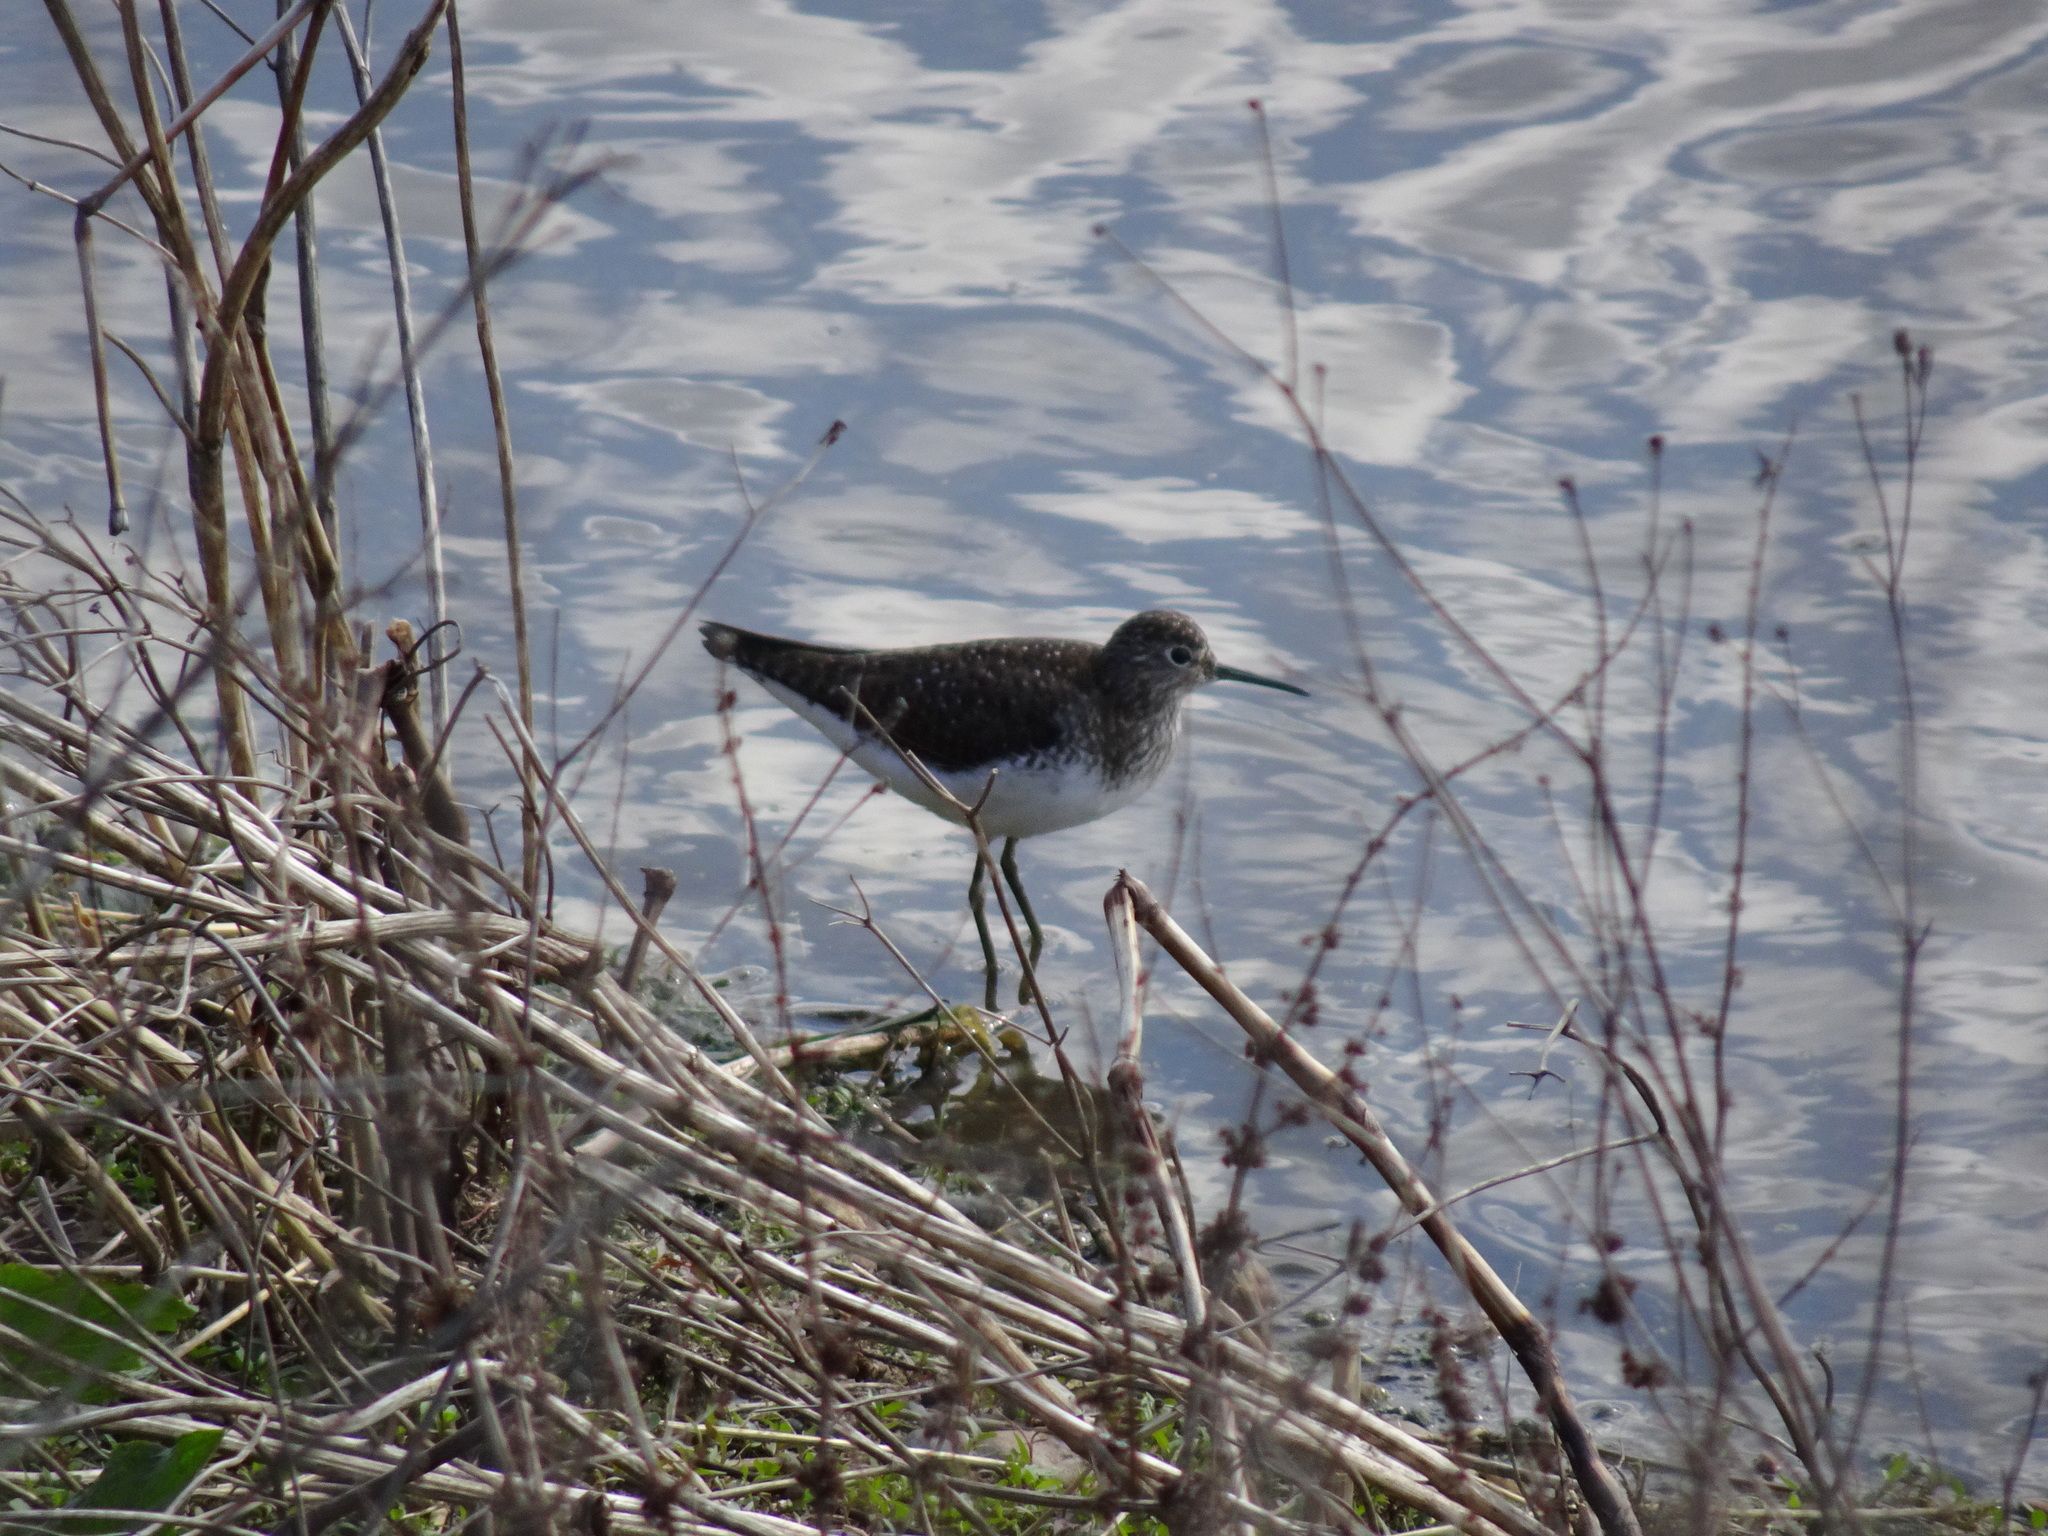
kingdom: Animalia
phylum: Chordata
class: Aves
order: Charadriiformes
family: Scolopacidae
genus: Tringa
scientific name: Tringa solitaria
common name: Solitary sandpiper
